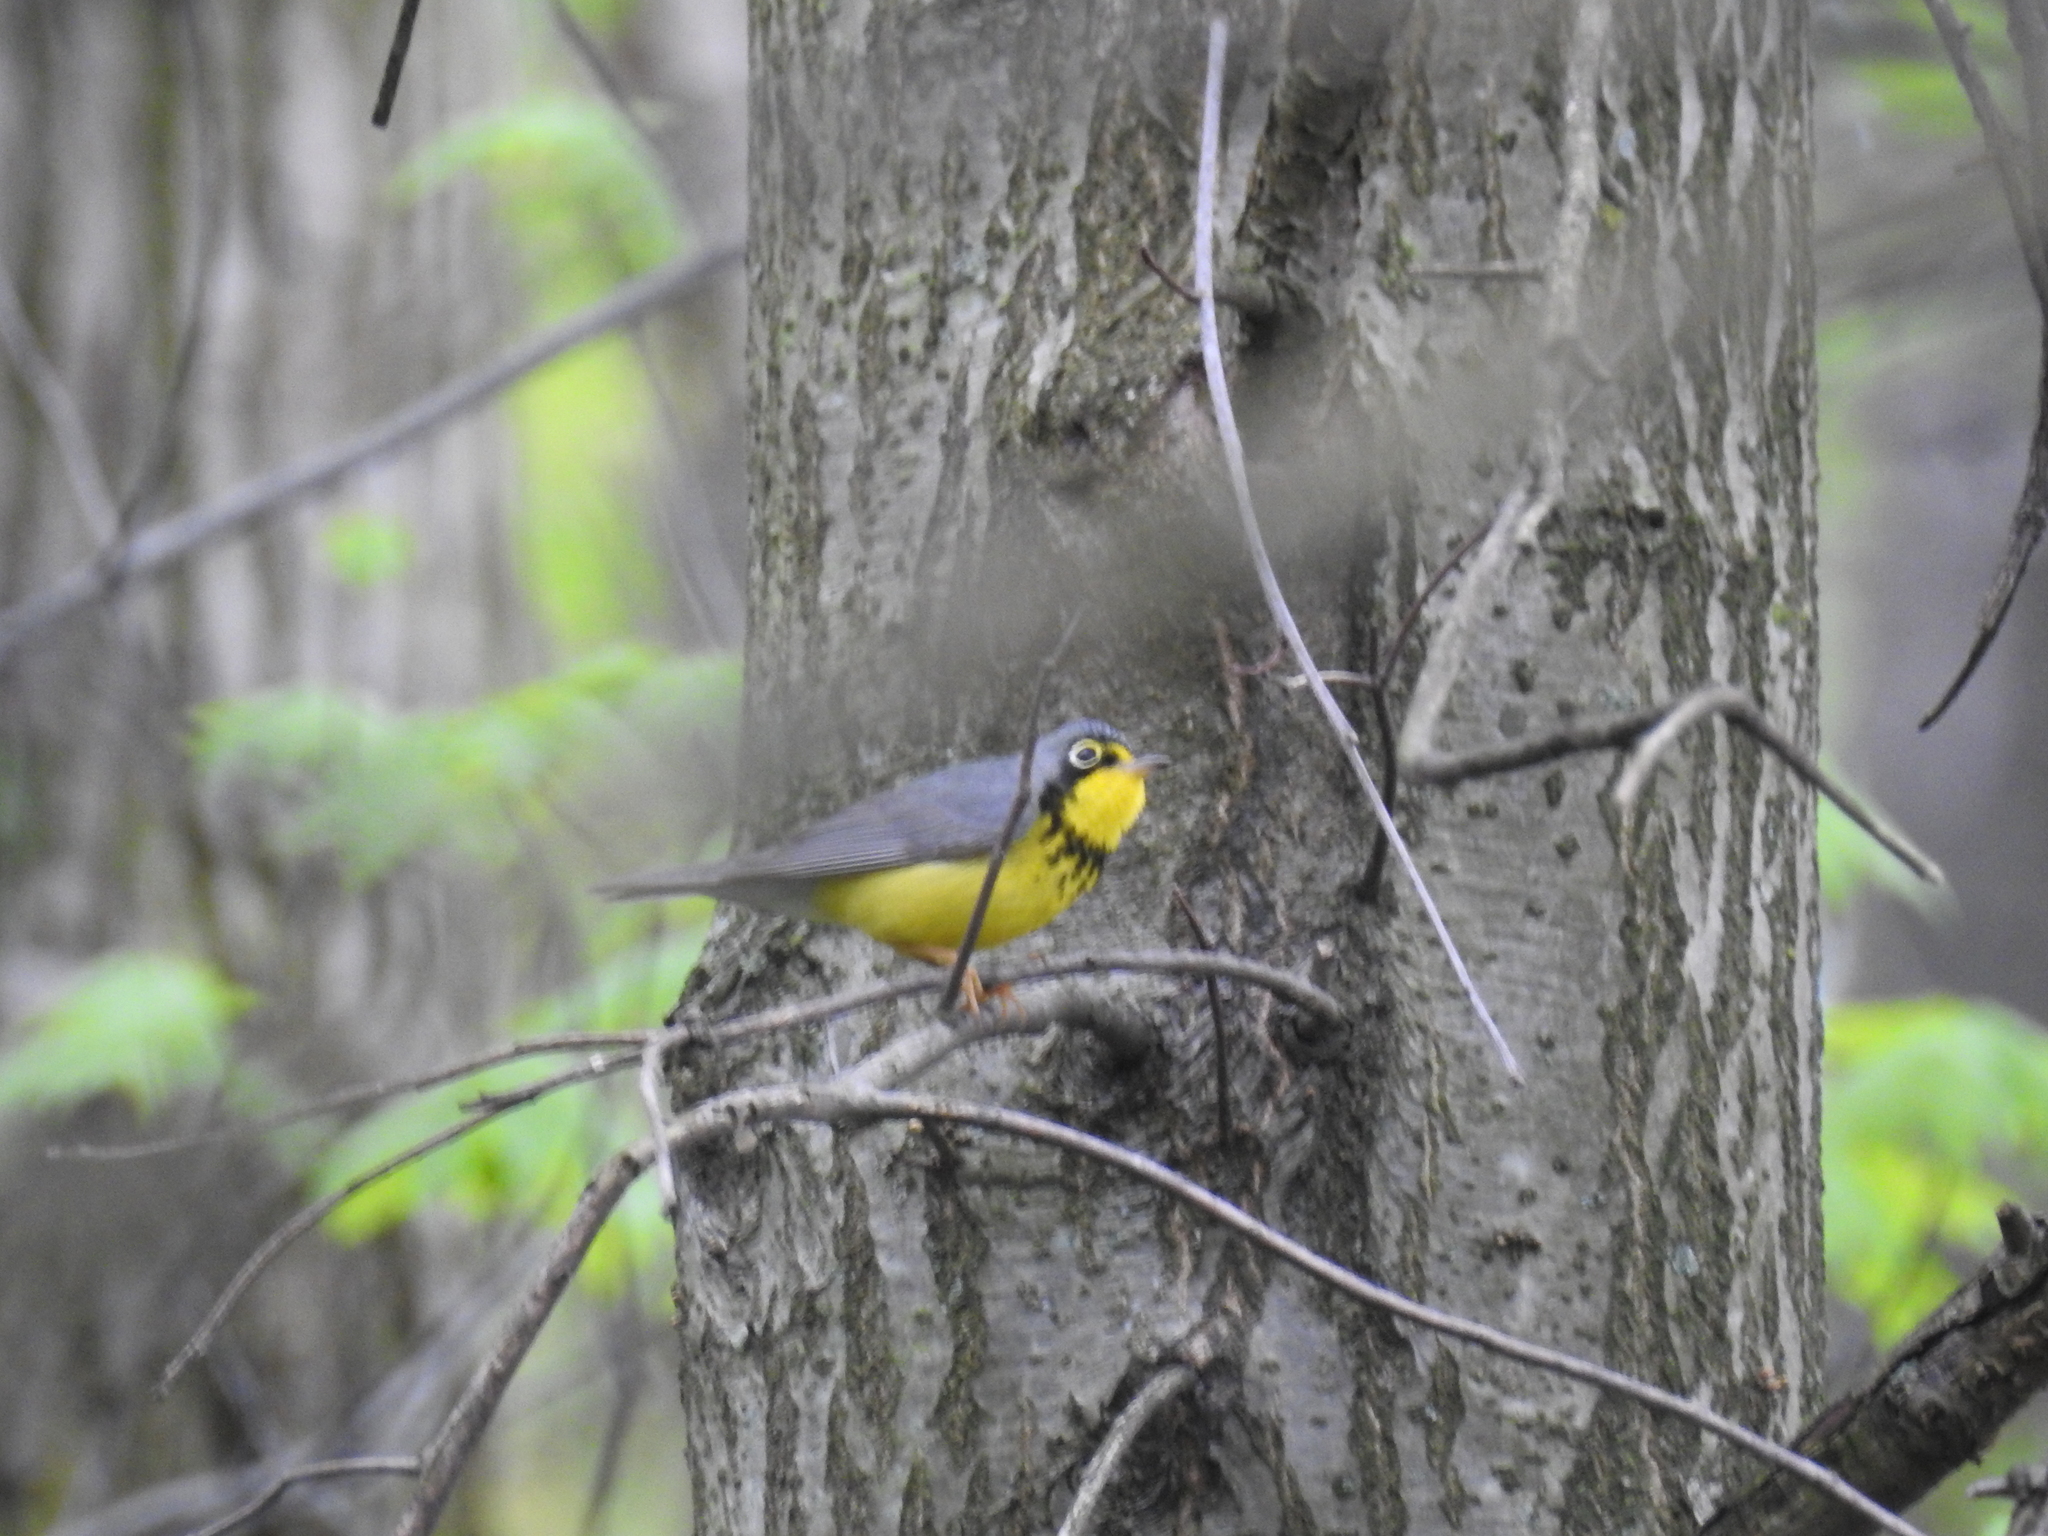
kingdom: Animalia
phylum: Chordata
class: Aves
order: Passeriformes
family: Parulidae
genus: Cardellina
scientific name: Cardellina canadensis
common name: Canada warbler
